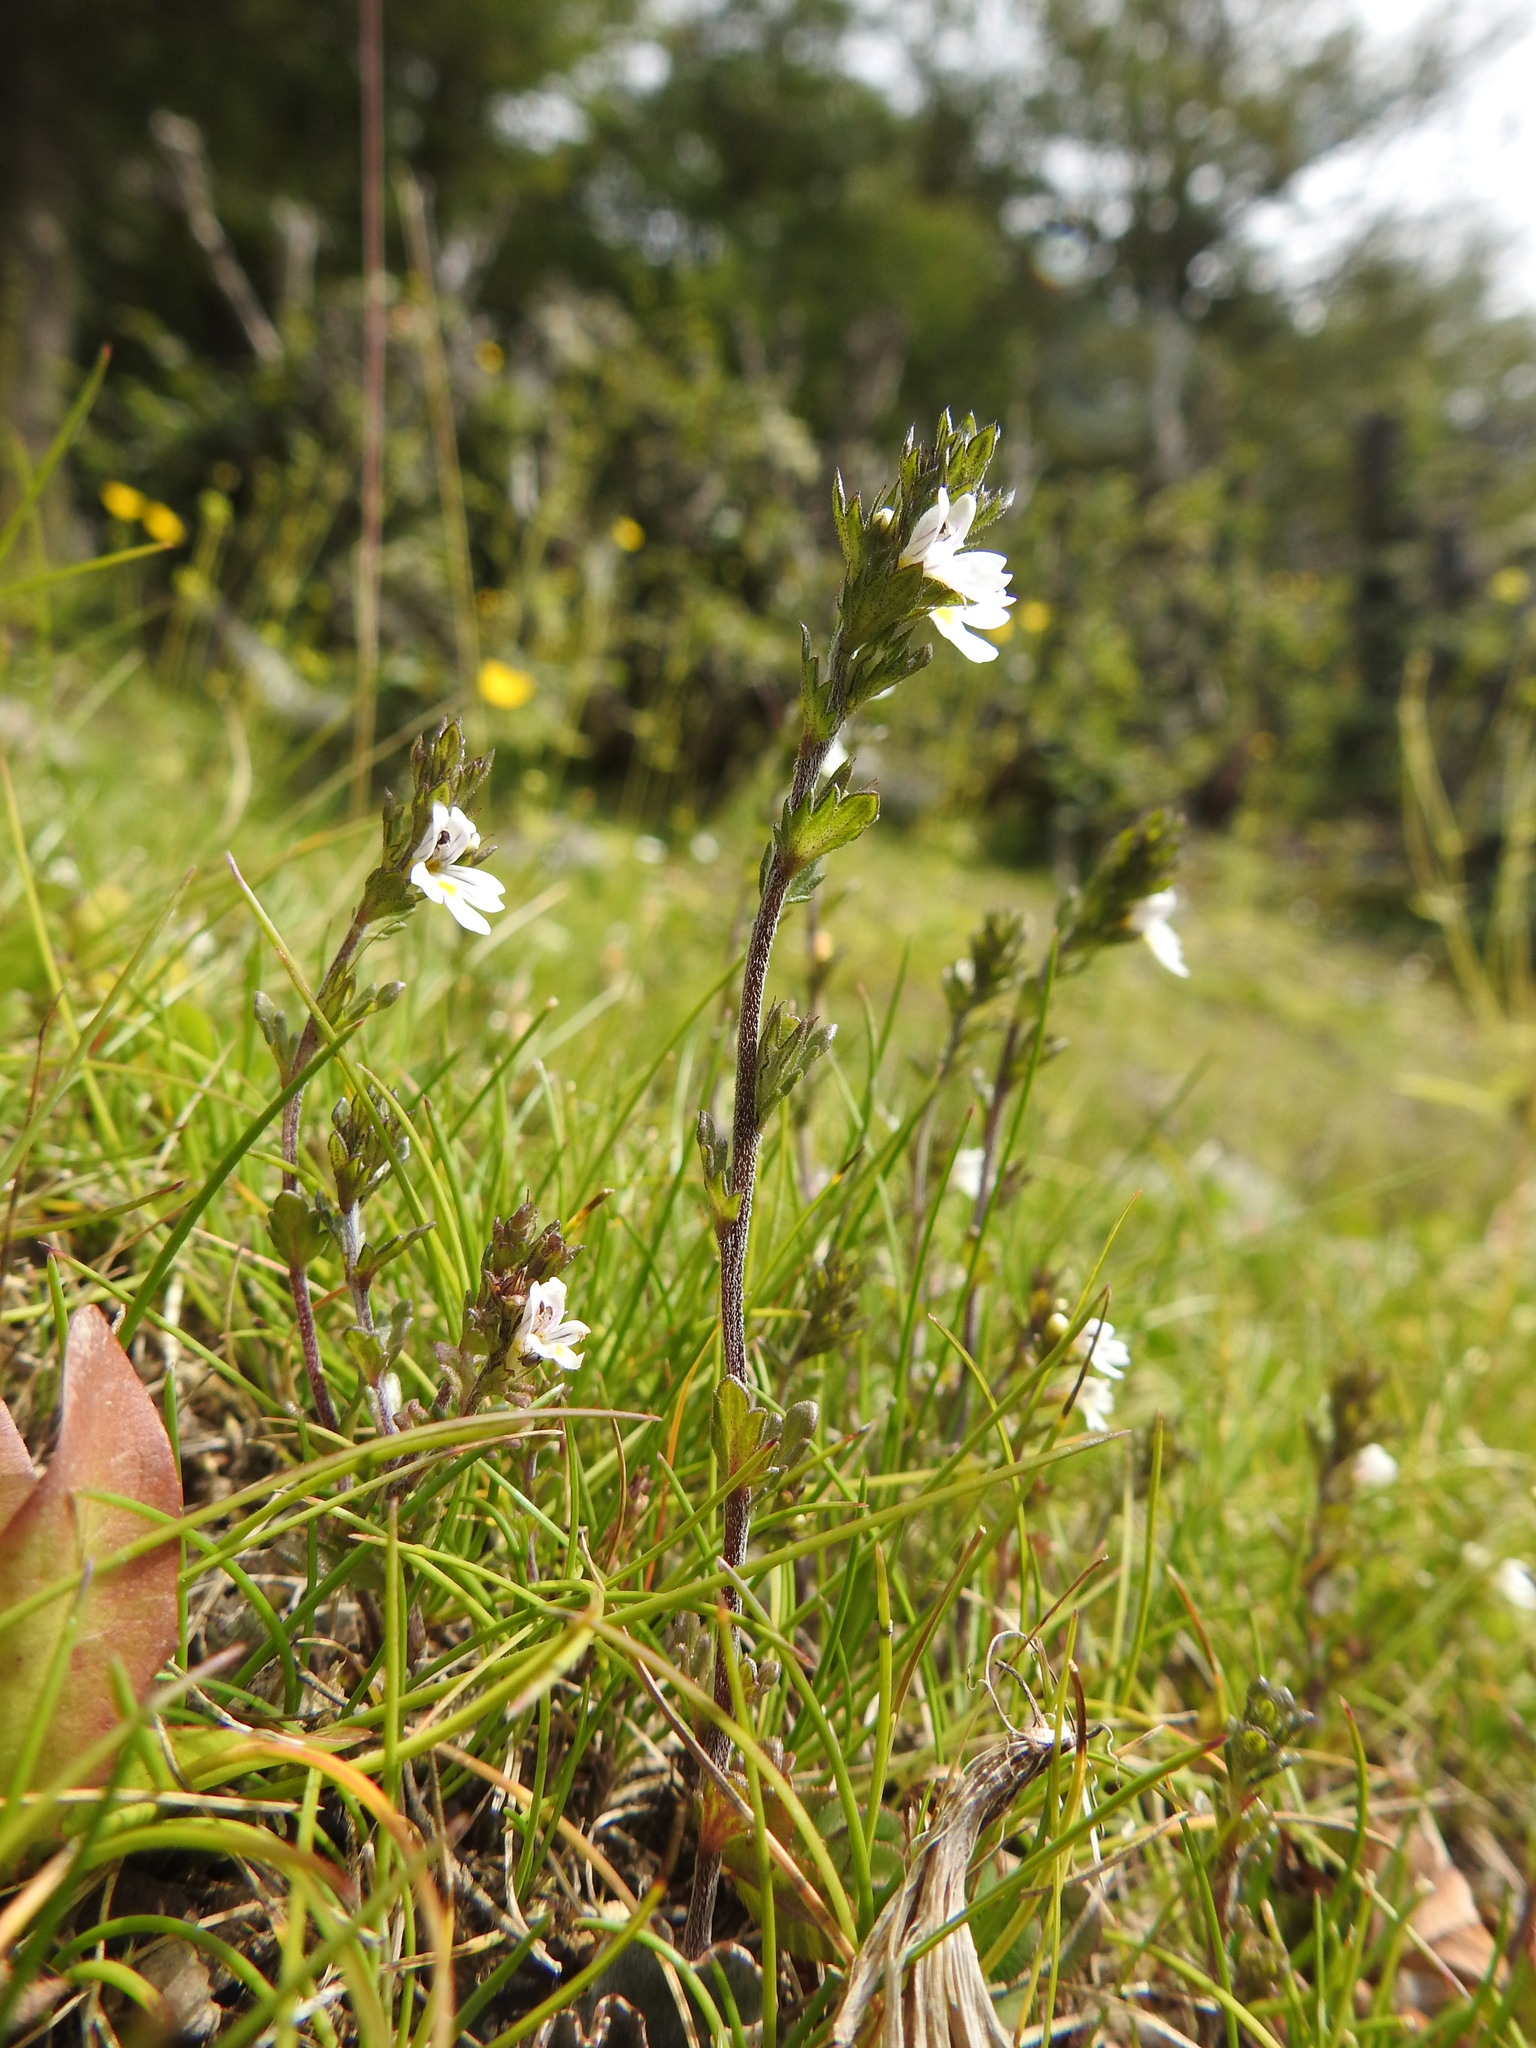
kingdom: Plantae
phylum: Tracheophyta
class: Magnoliopsida
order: Lamiales
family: Orobanchaceae
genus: Euphrasia
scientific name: Euphrasia officinalis
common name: Eyebright
